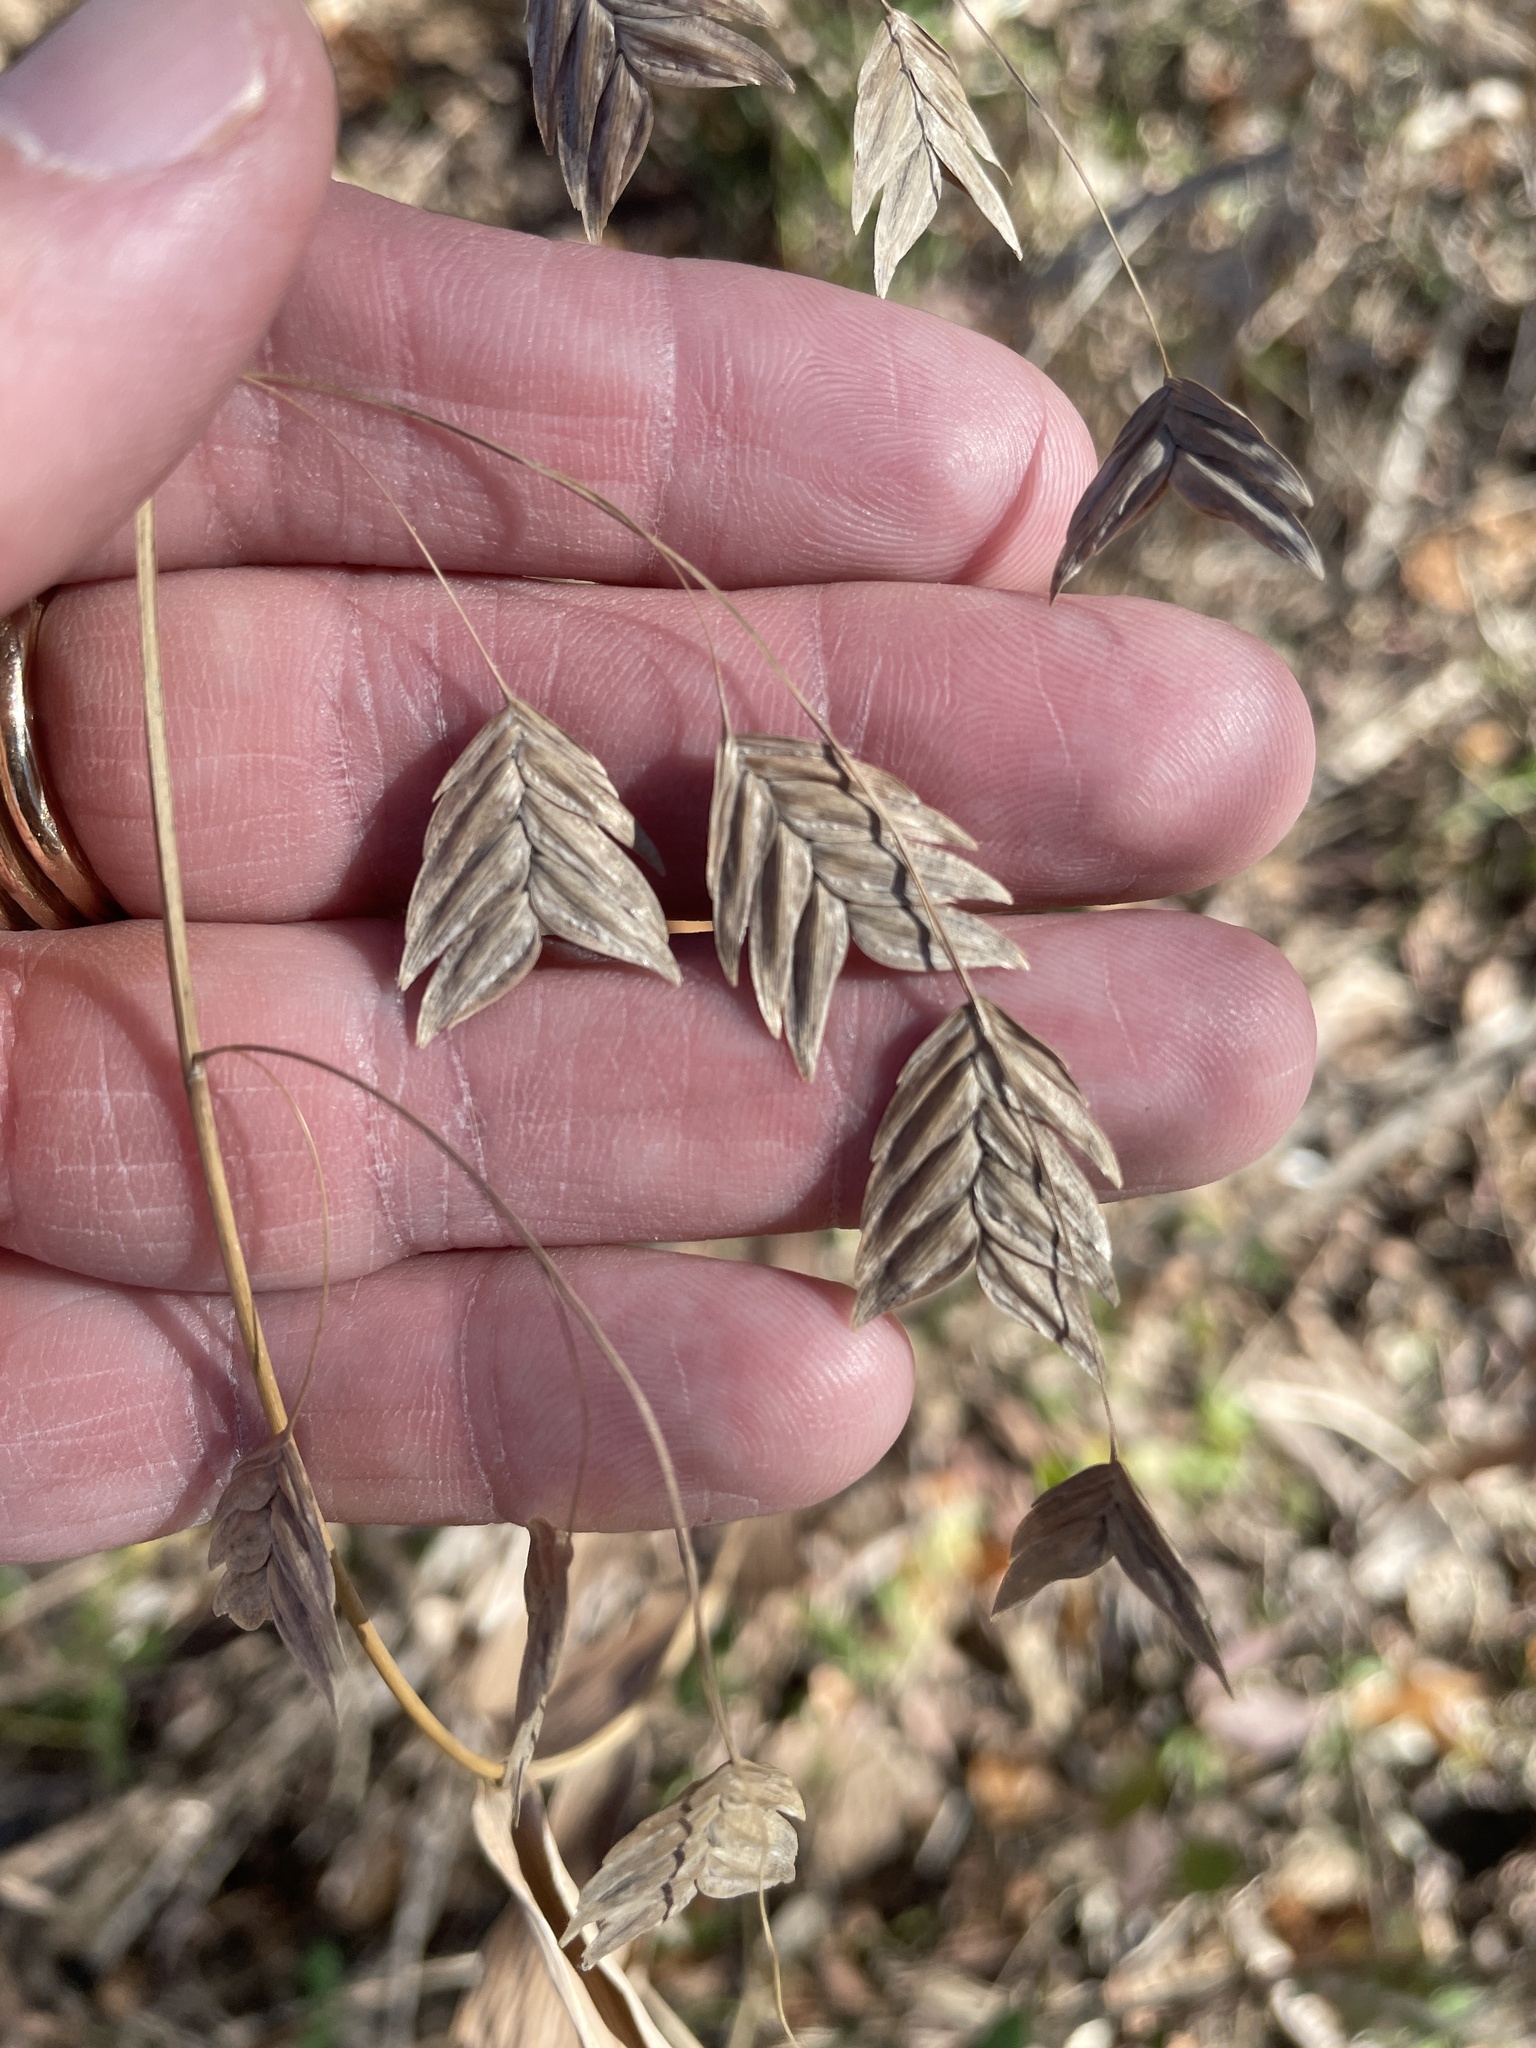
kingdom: Plantae
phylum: Tracheophyta
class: Liliopsida
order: Poales
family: Poaceae
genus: Chasmanthium
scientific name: Chasmanthium latifolium
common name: Broad-leaved chasmanthium
